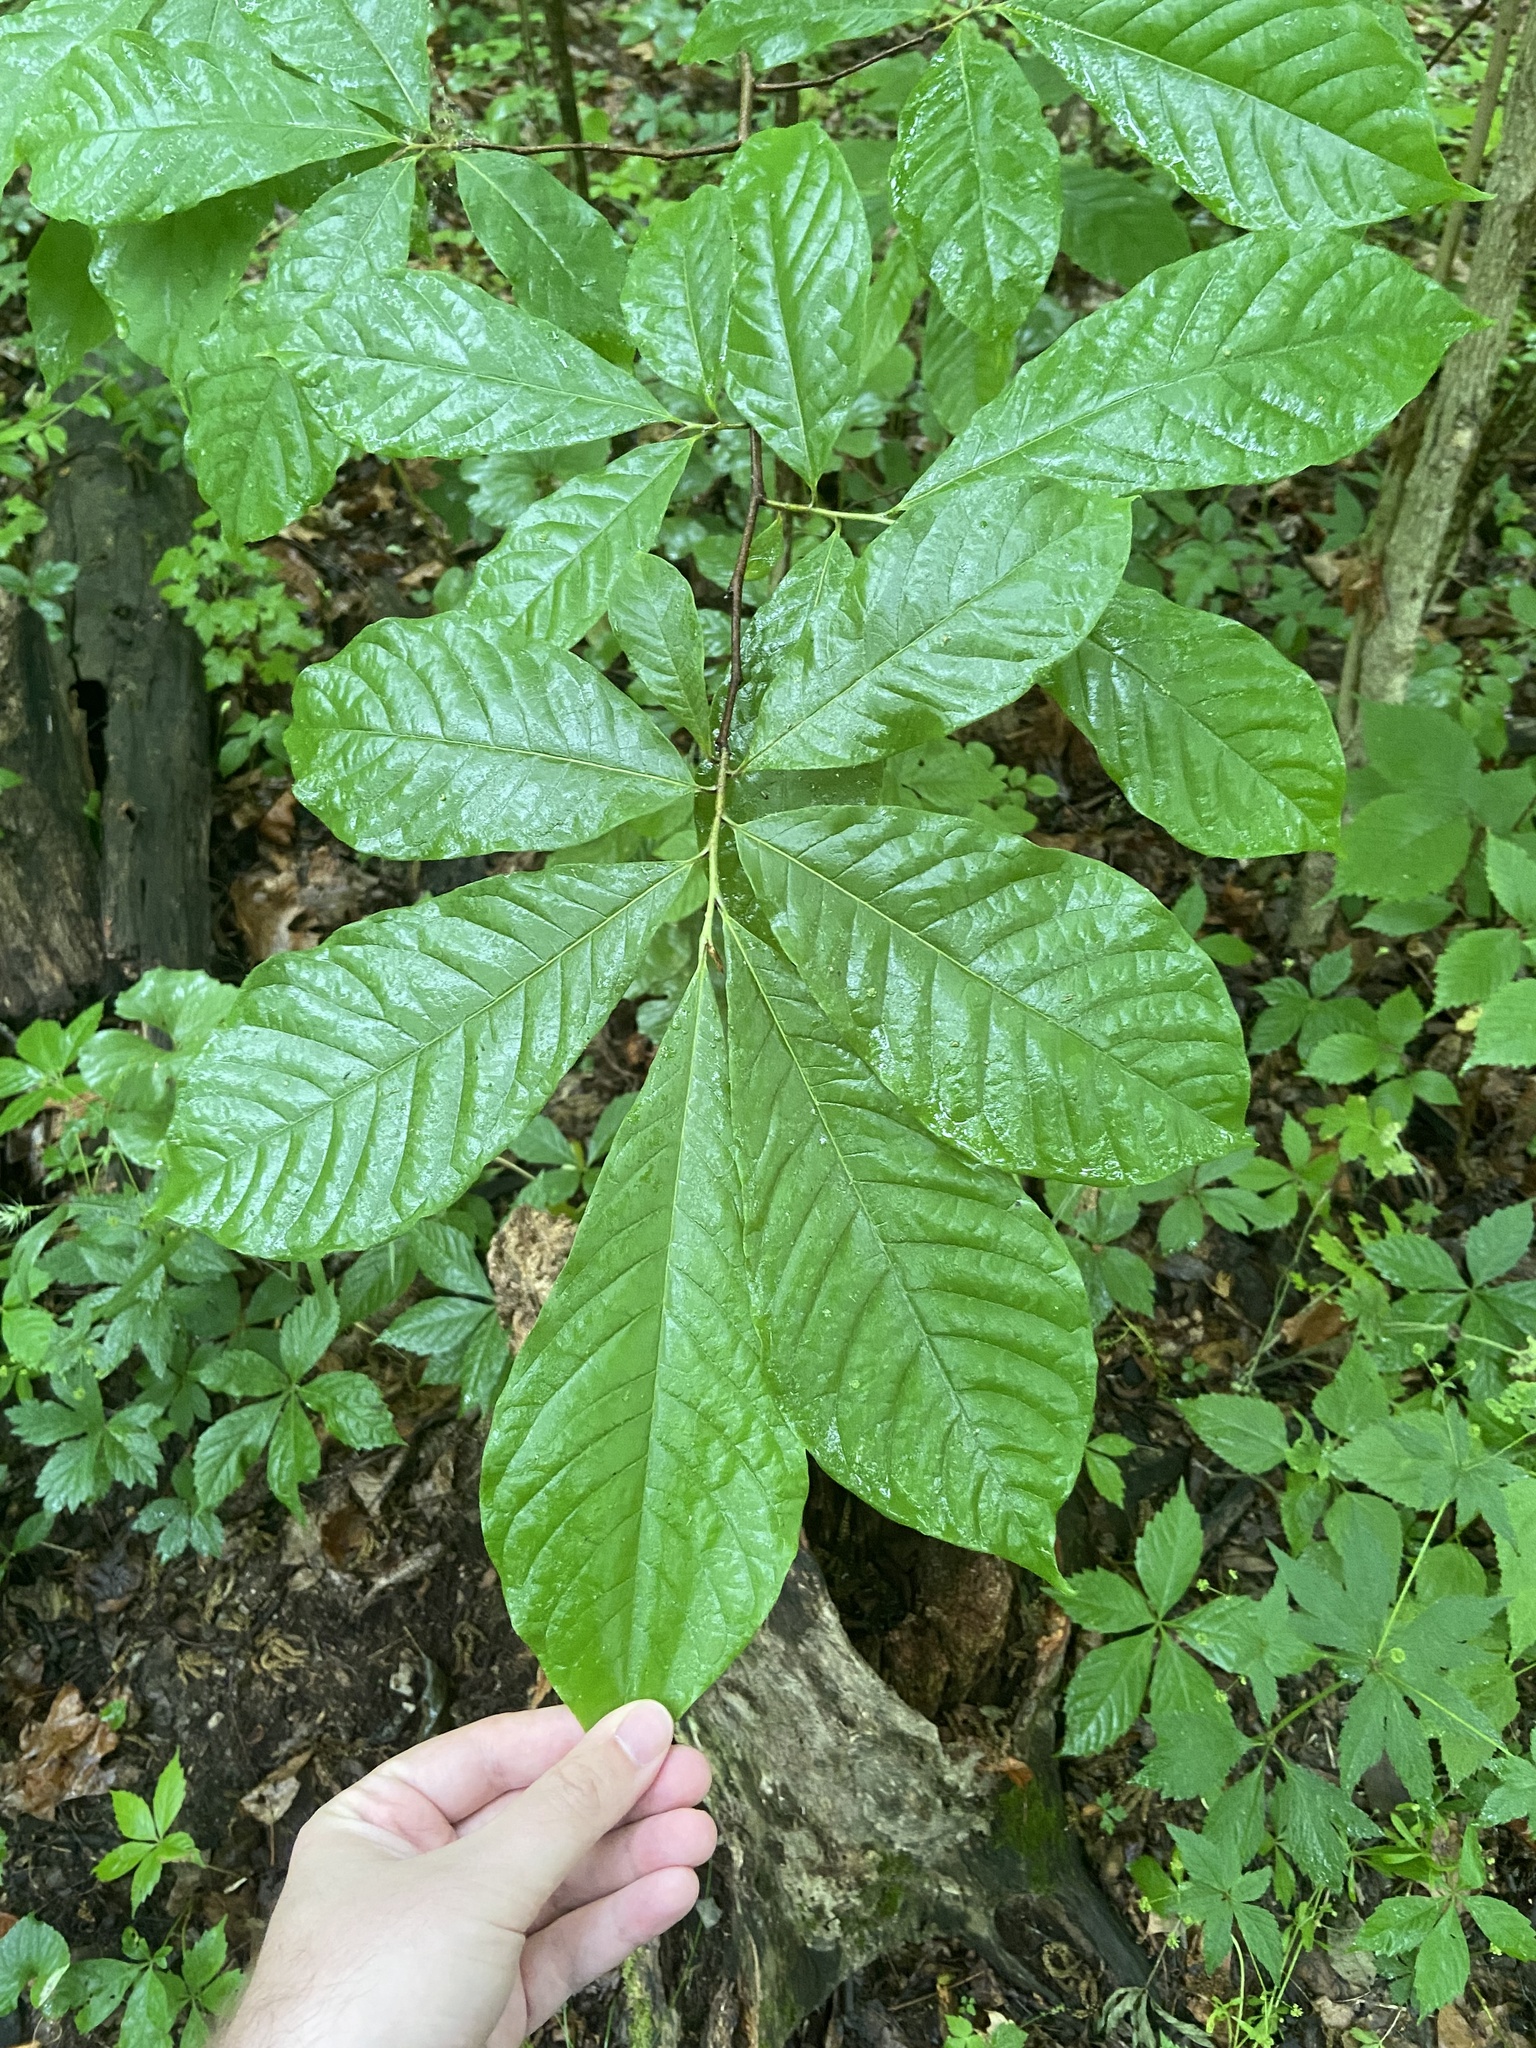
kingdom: Plantae
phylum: Tracheophyta
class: Magnoliopsida
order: Magnoliales
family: Annonaceae
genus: Asimina
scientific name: Asimina triloba
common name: Dog-banana
